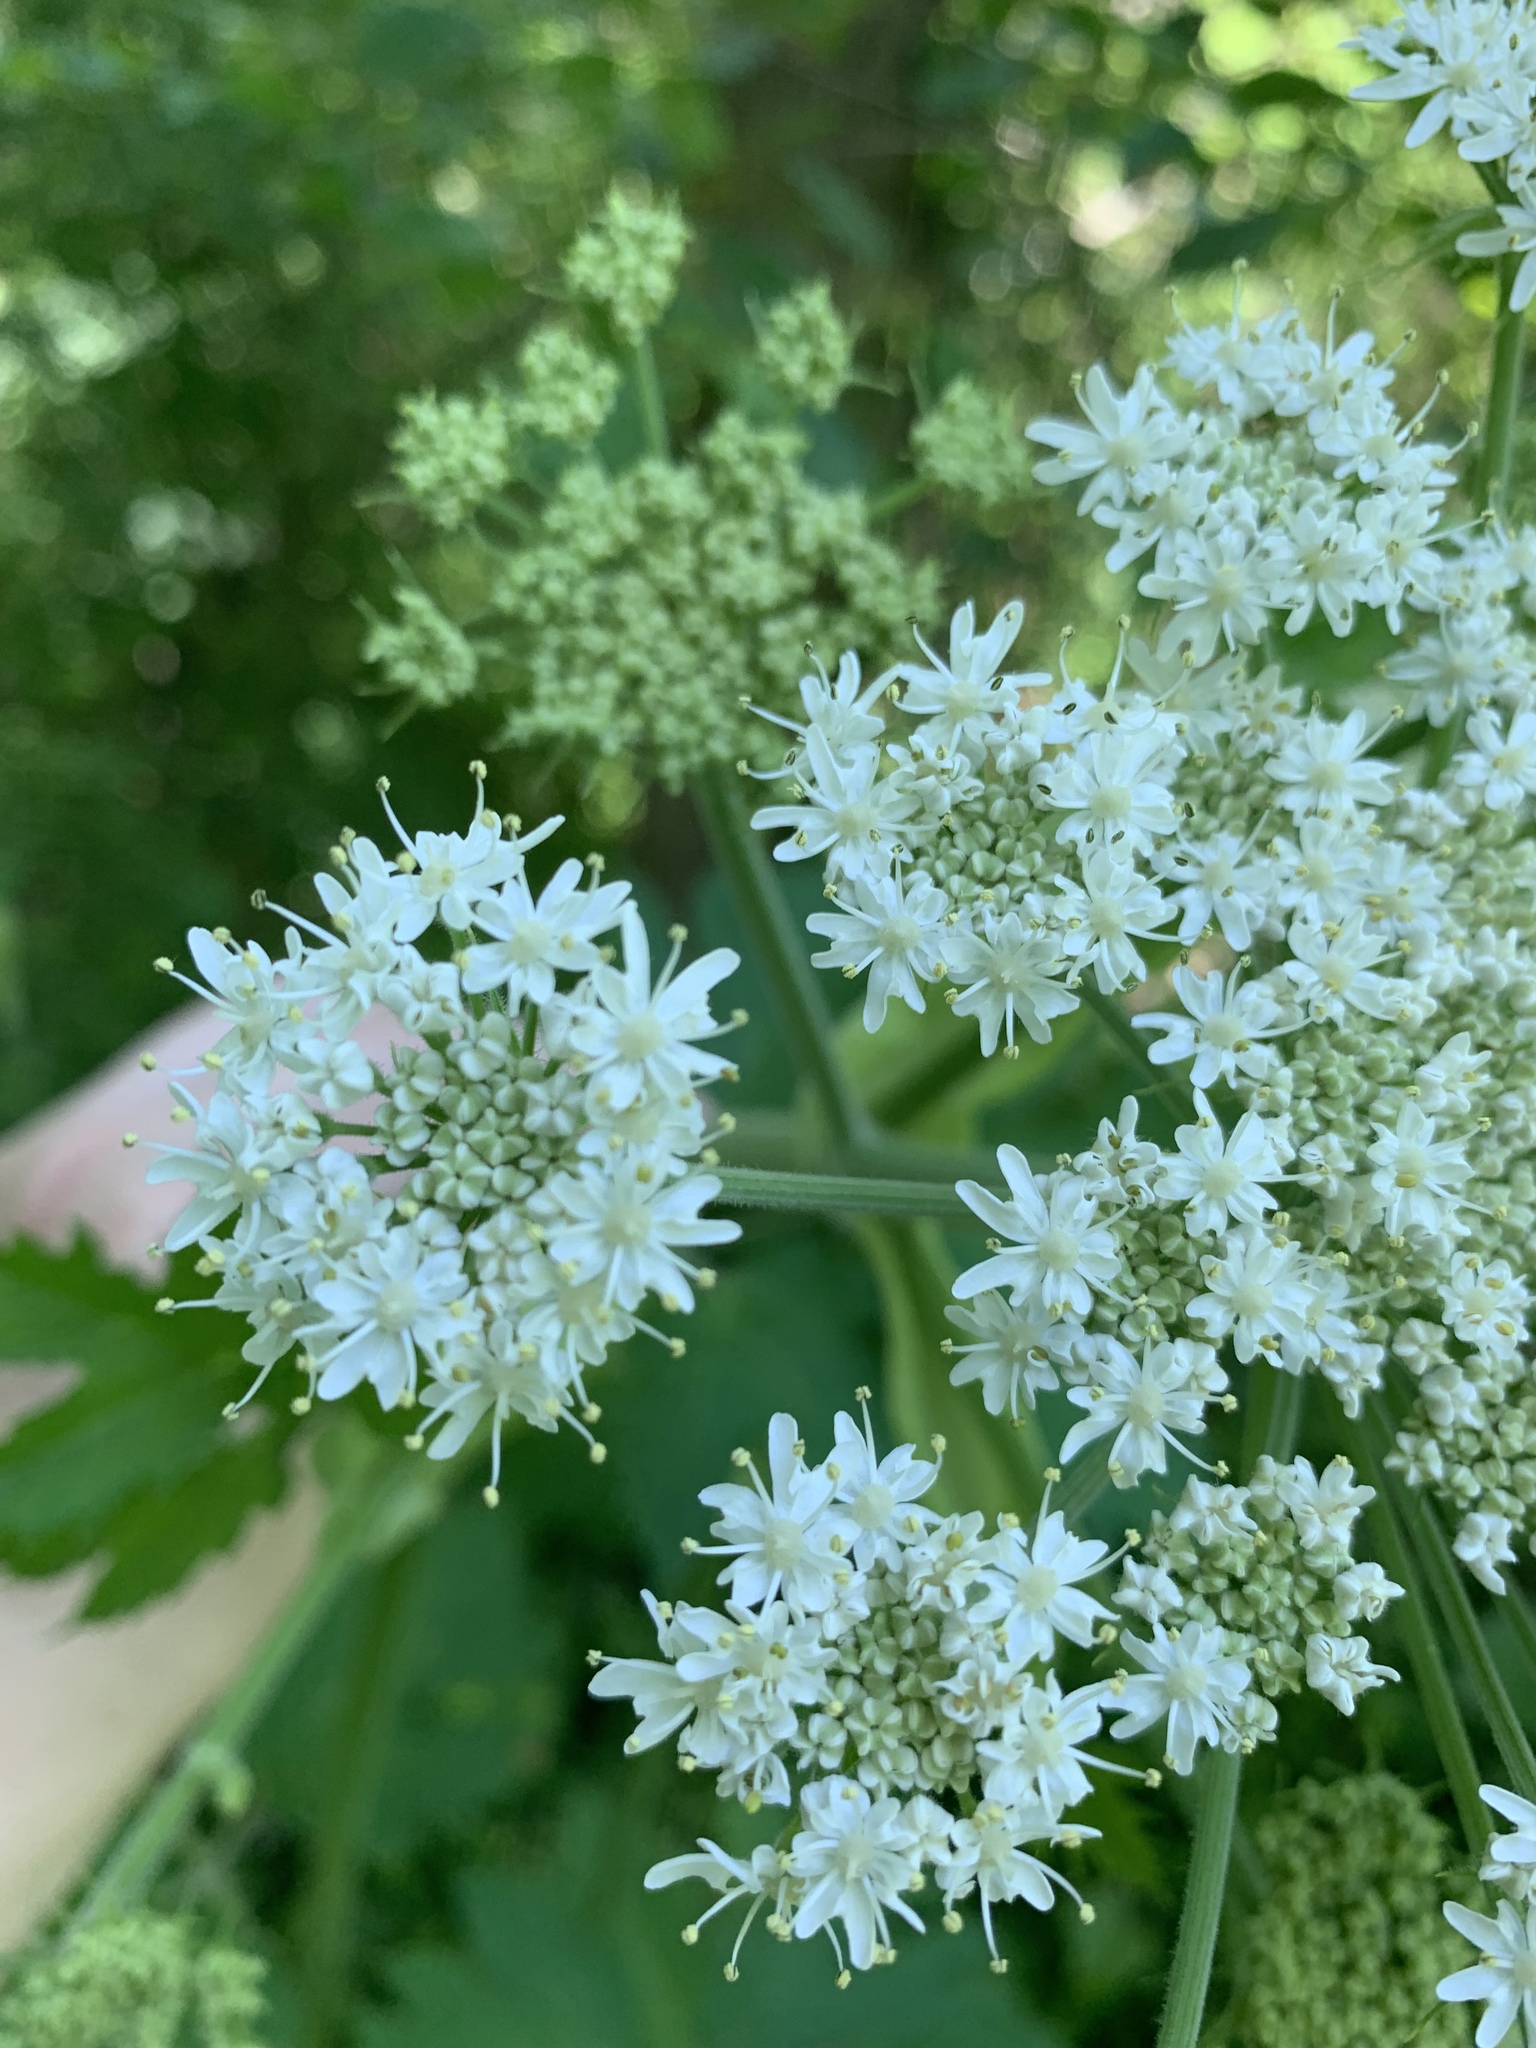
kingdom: Plantae
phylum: Tracheophyta
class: Magnoliopsida
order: Apiales
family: Apiaceae
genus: Heracleum
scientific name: Heracleum maximum
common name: American cow parsnip
